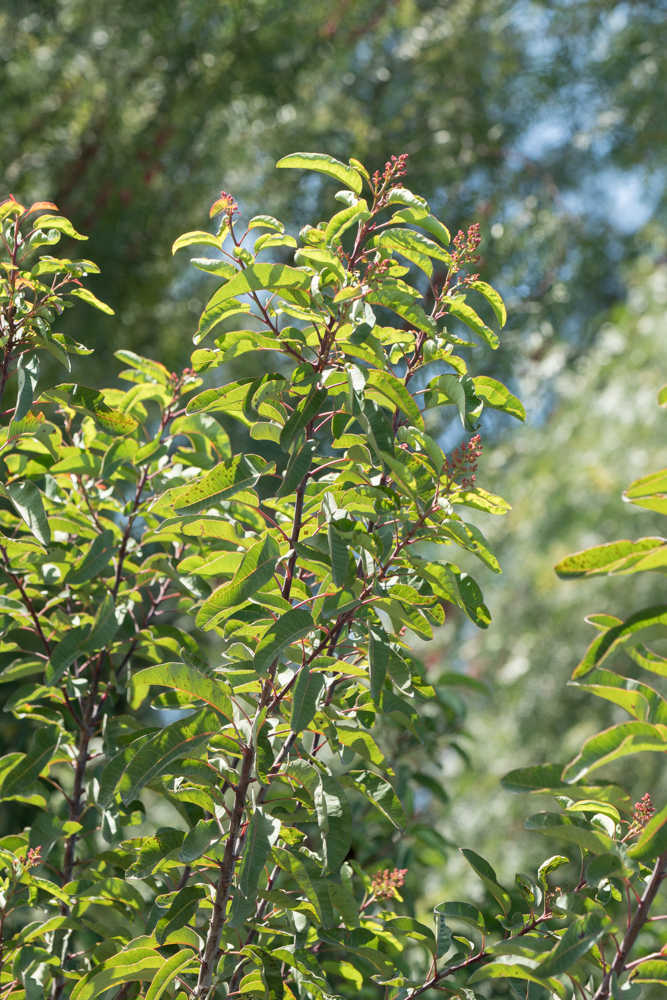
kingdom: Plantae
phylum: Tracheophyta
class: Magnoliopsida
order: Sapindales
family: Anacardiaceae
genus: Malosma
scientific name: Malosma laurina
